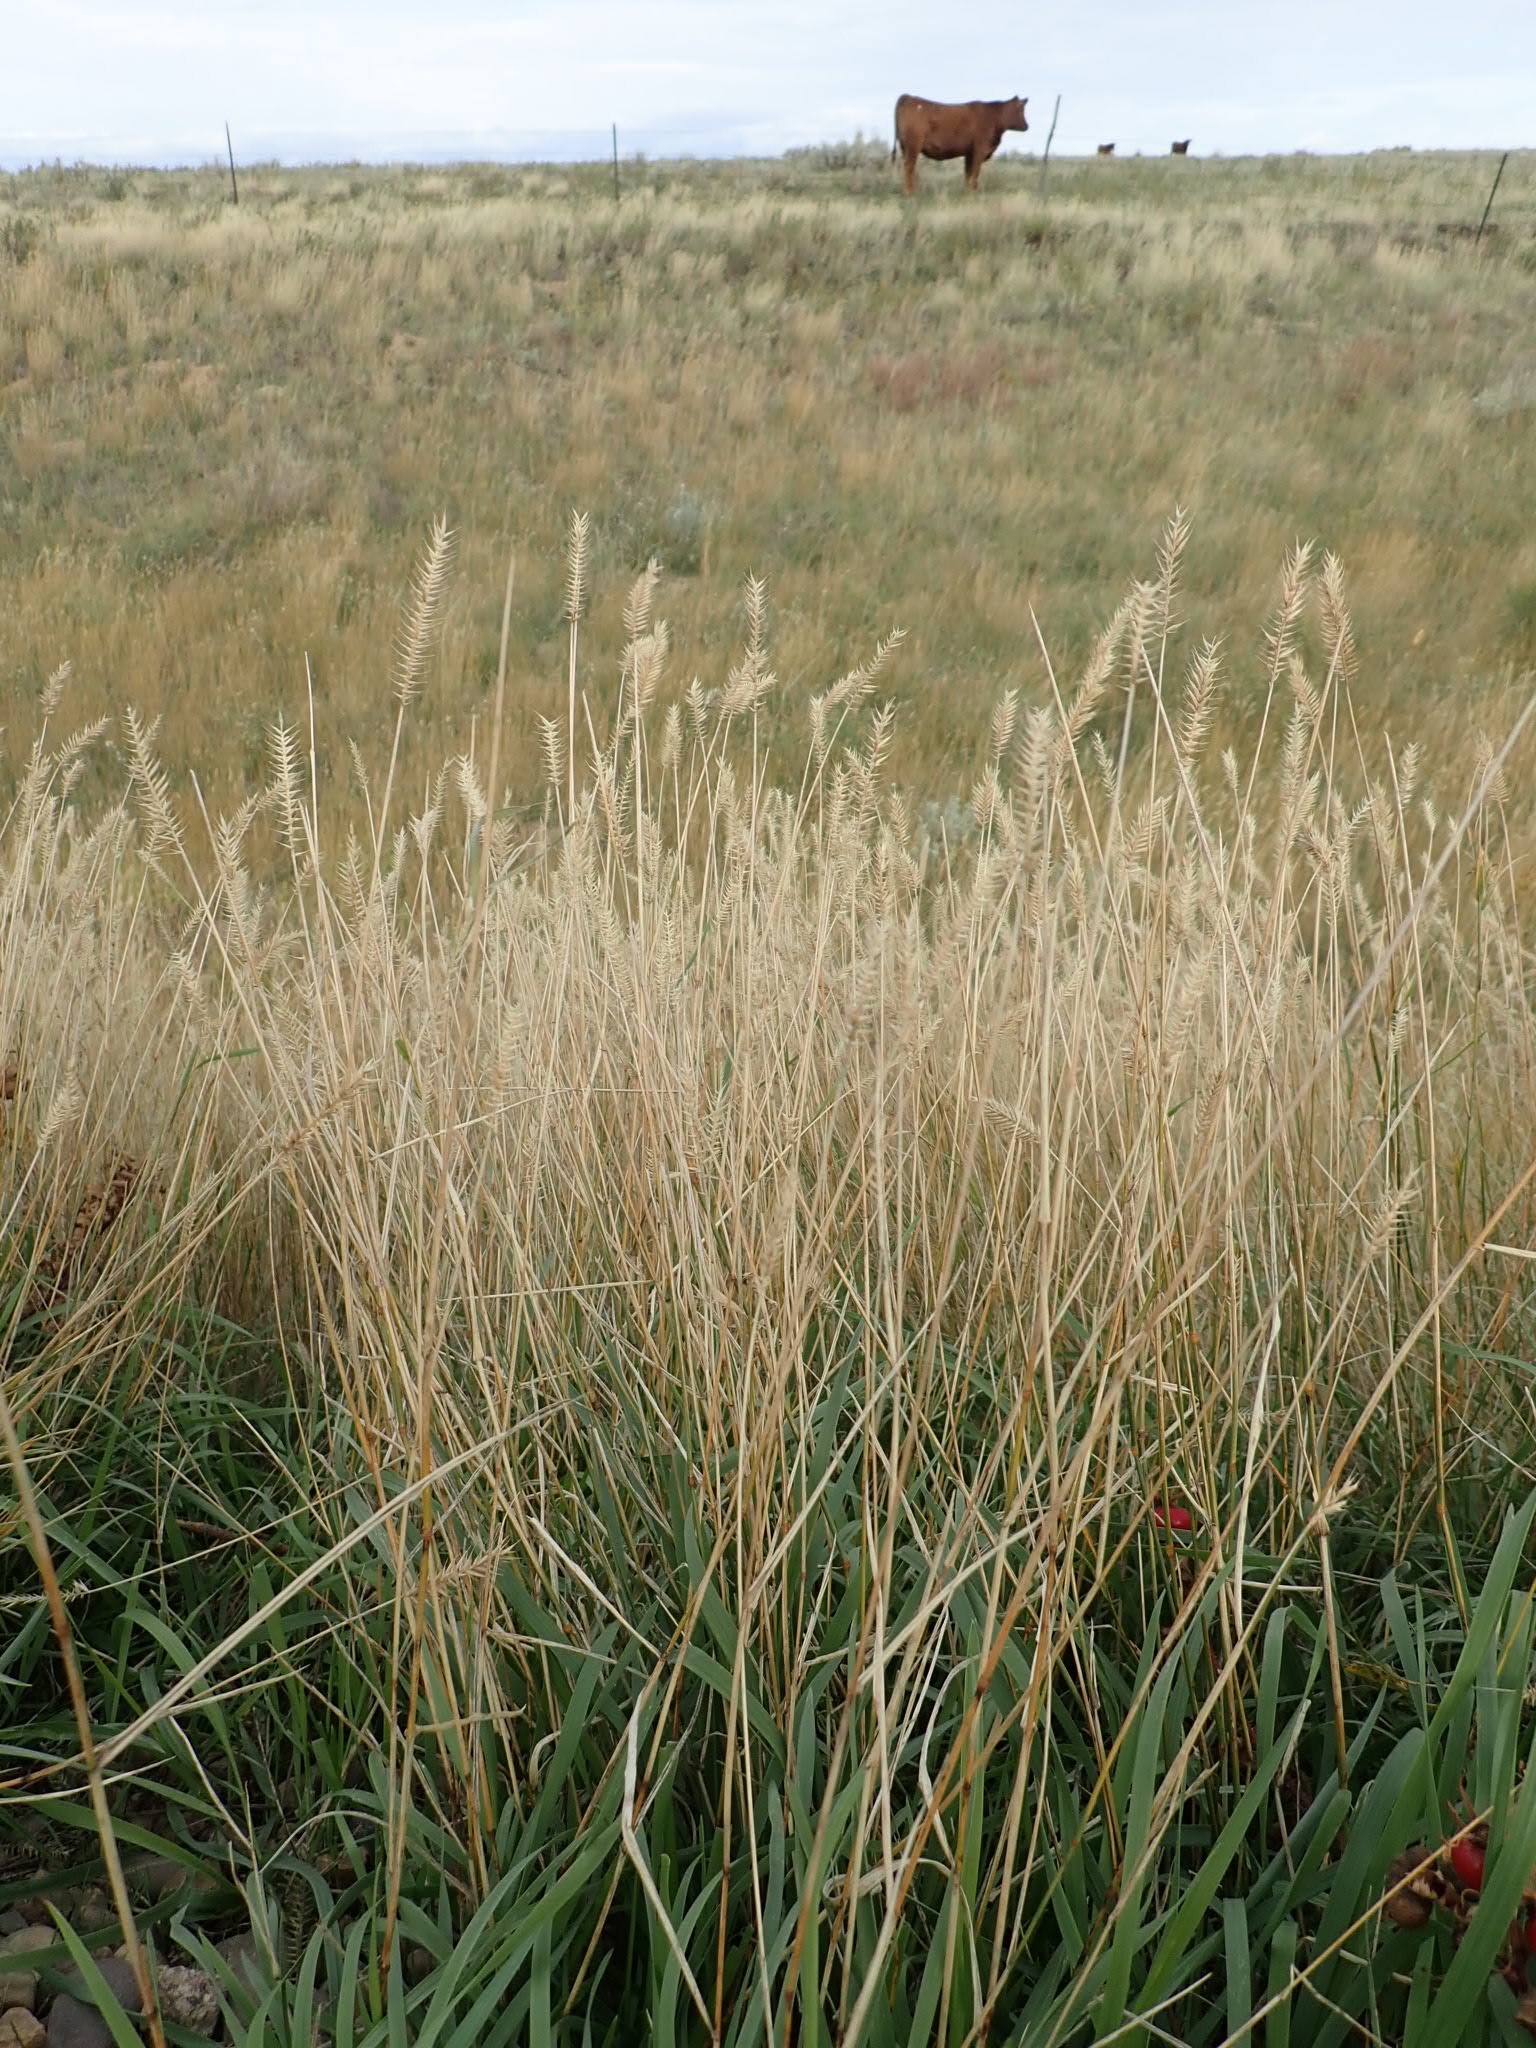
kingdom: Plantae
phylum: Tracheophyta
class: Liliopsida
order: Poales
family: Poaceae
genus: Agropyron
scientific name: Agropyron cristatum
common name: Crested wheatgrass
